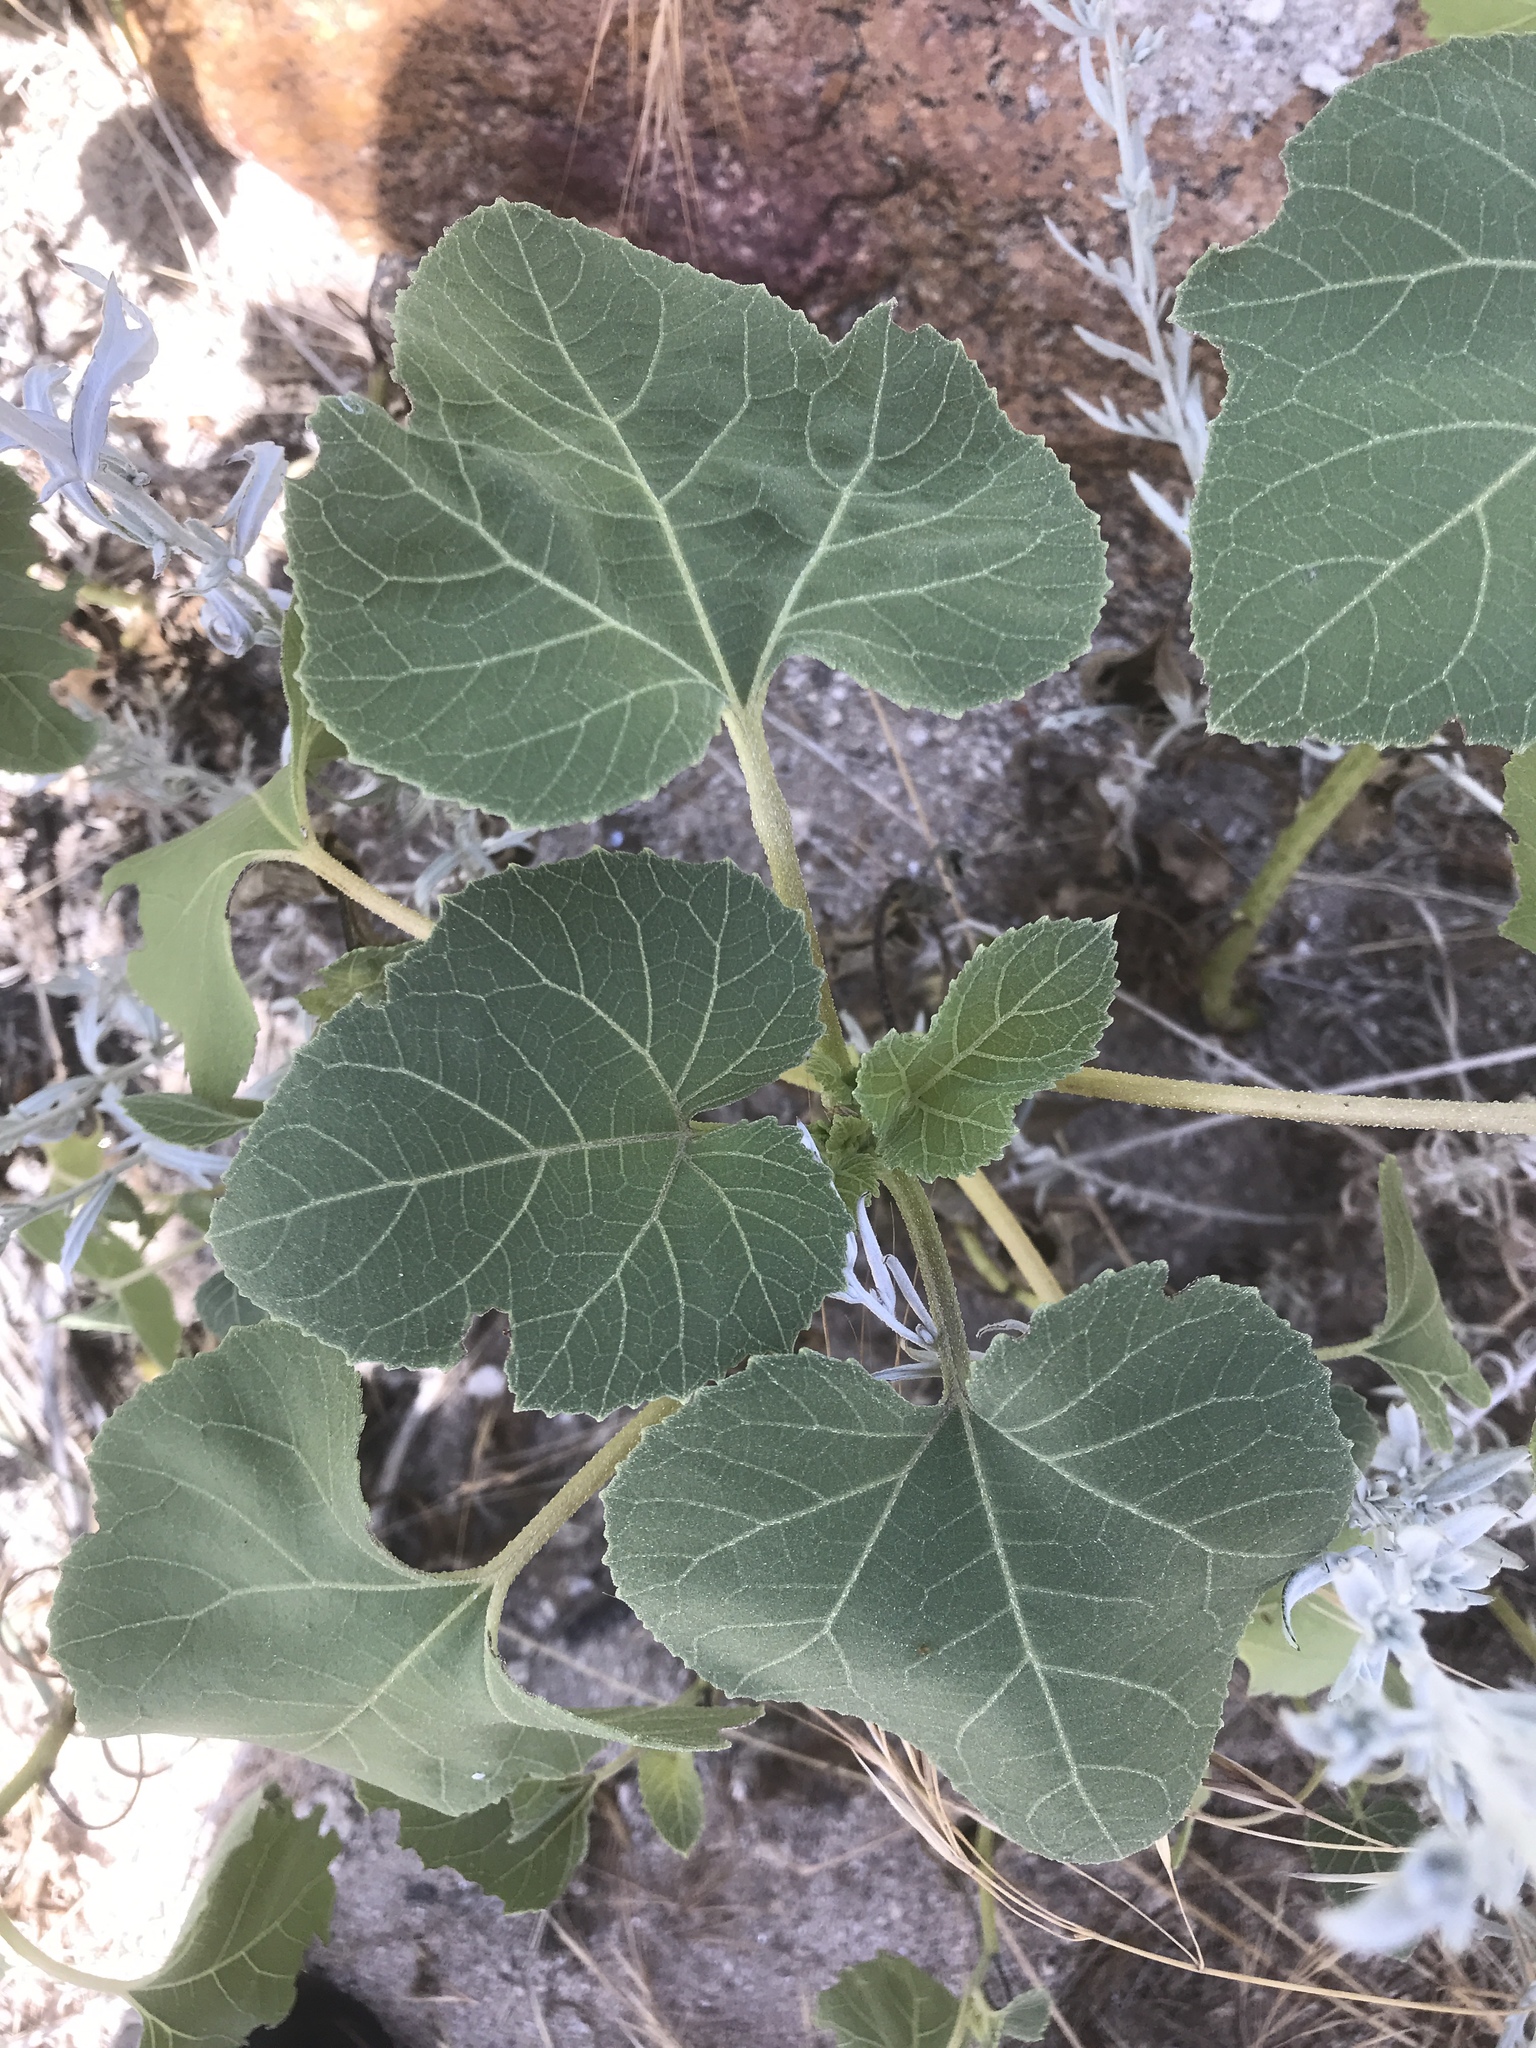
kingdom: Plantae
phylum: Tracheophyta
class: Magnoliopsida
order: Asterales
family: Asteraceae
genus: Xanthium
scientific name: Xanthium strumarium
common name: Rough cocklebur
